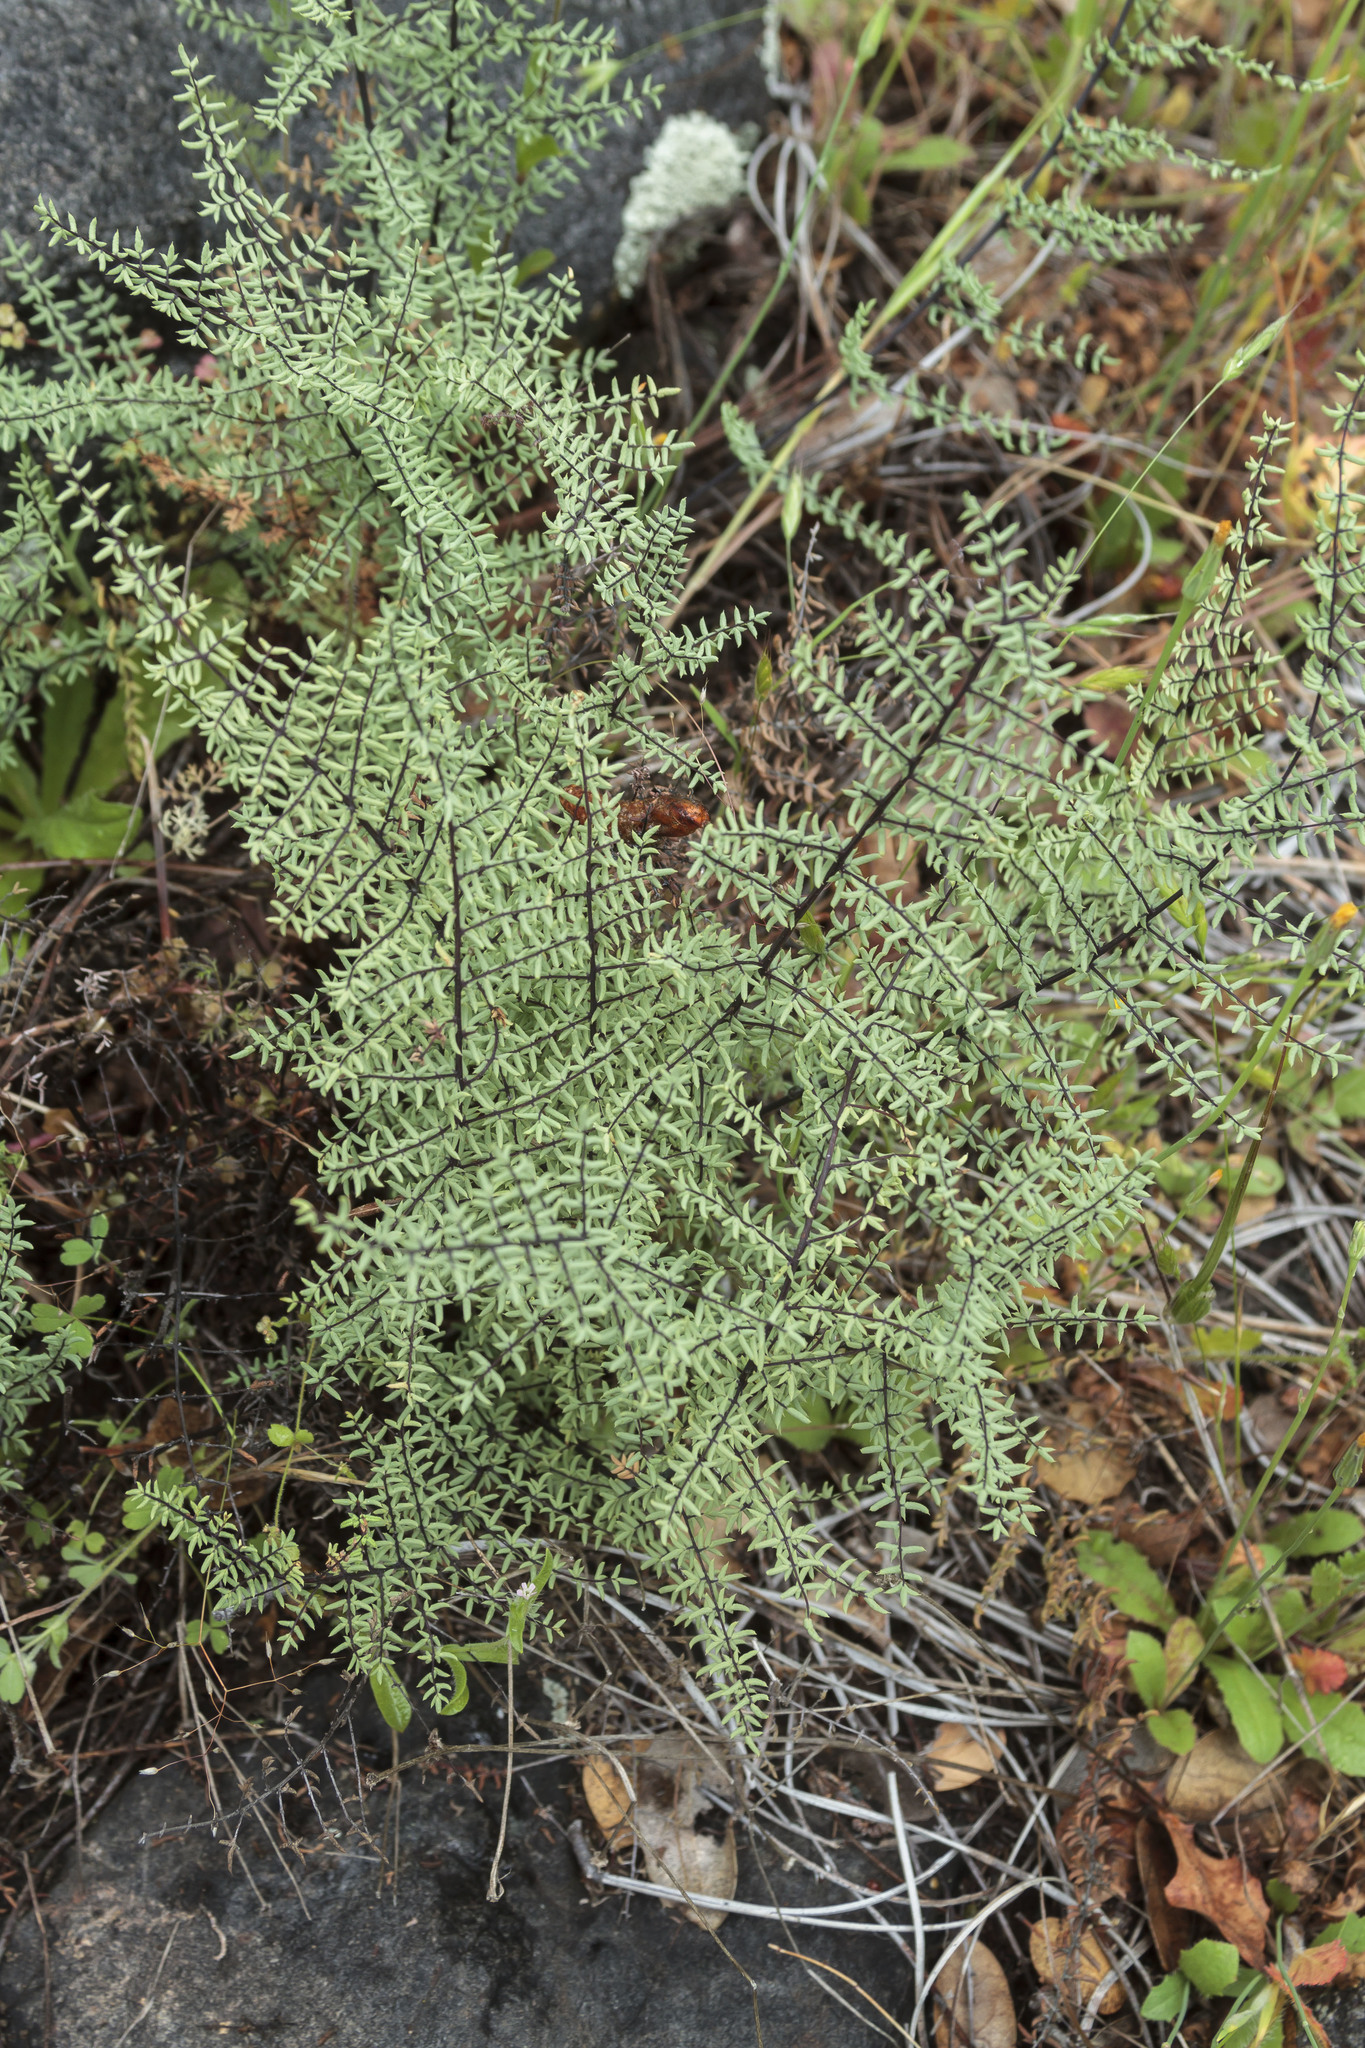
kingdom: Plantae
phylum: Tracheophyta
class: Polypodiopsida
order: Polypodiales
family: Pteridaceae
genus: Pellaea
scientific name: Pellaea mucronata
